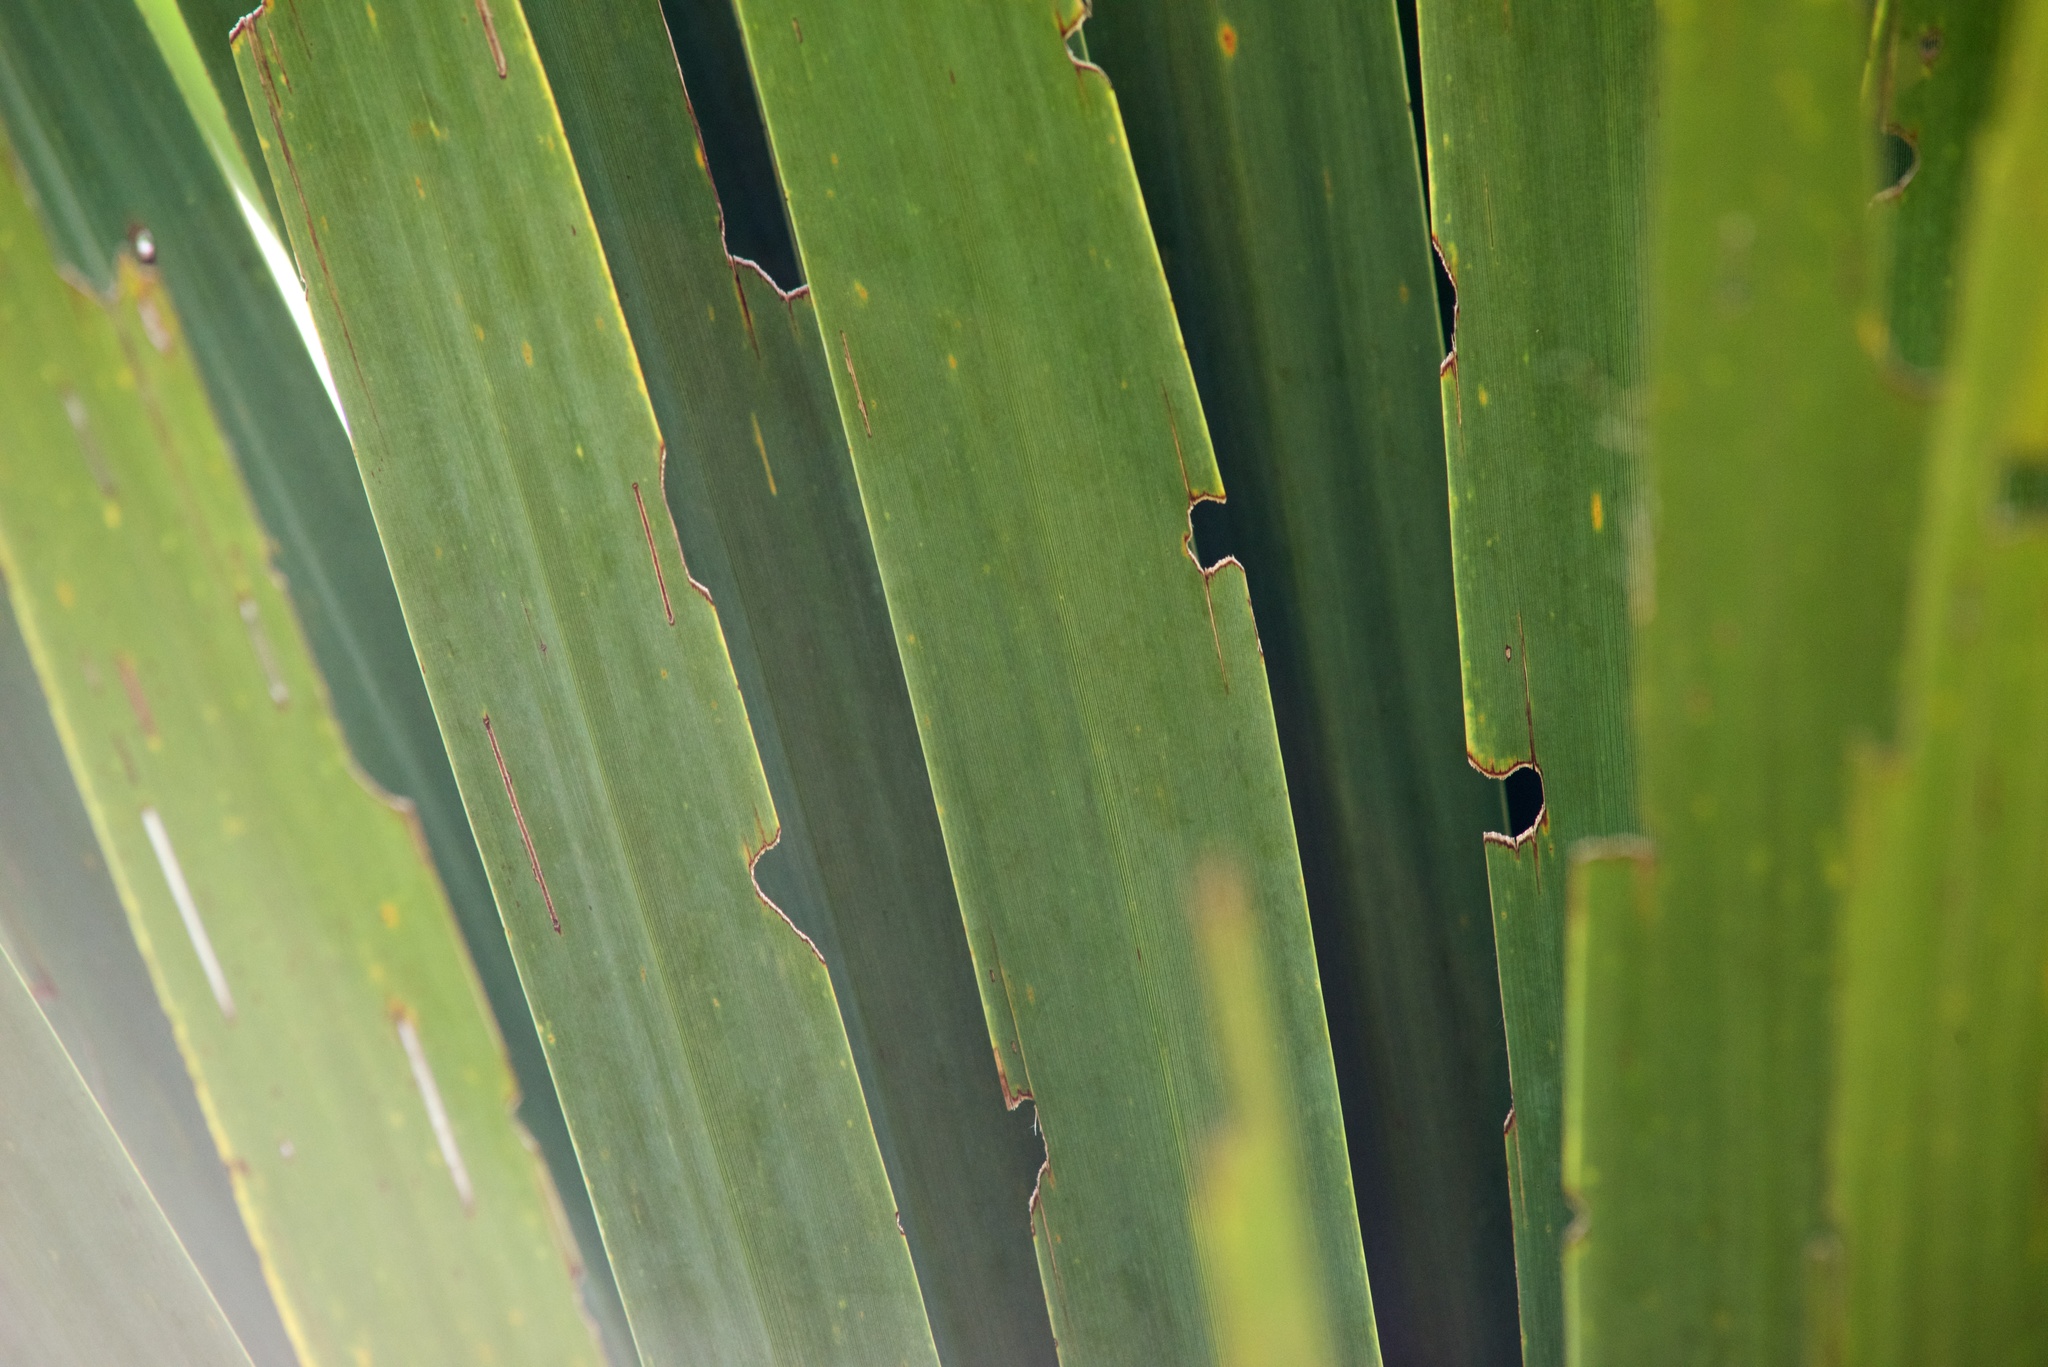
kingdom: Plantae
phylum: Tracheophyta
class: Liliopsida
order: Asparagales
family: Asparagaceae
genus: Cordyline
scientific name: Cordyline australis
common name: Cabbage-palm
